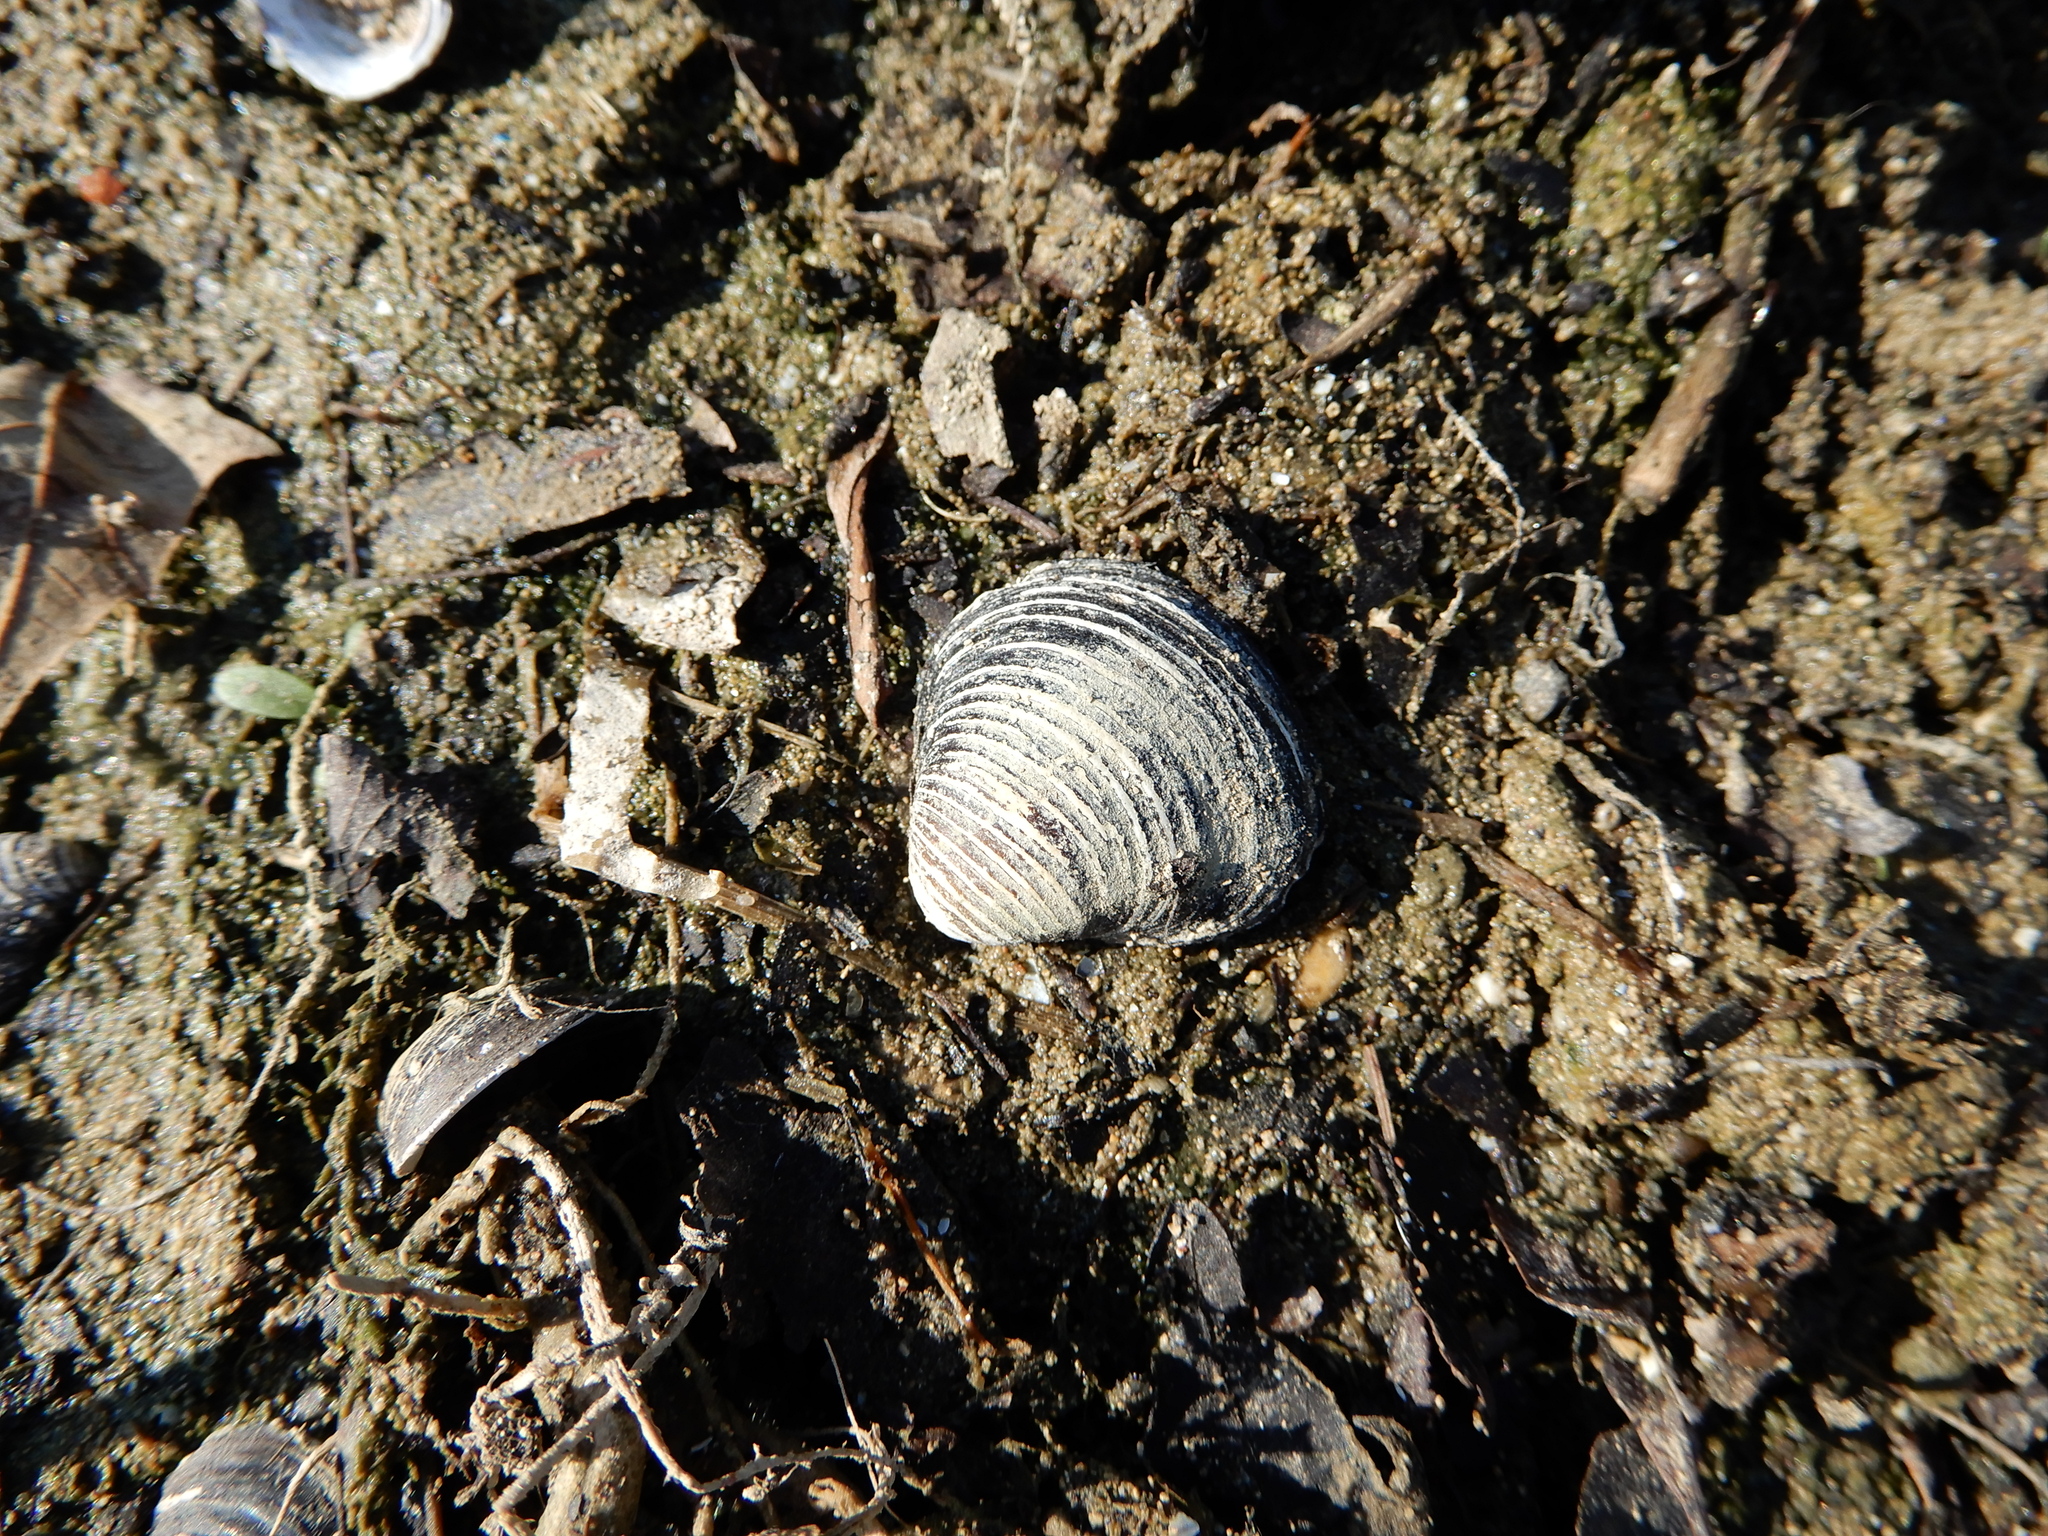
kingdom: Animalia
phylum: Mollusca
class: Bivalvia
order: Venerida
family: Cyrenidae
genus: Corbicula
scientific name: Corbicula fluminea
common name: Asian clam
